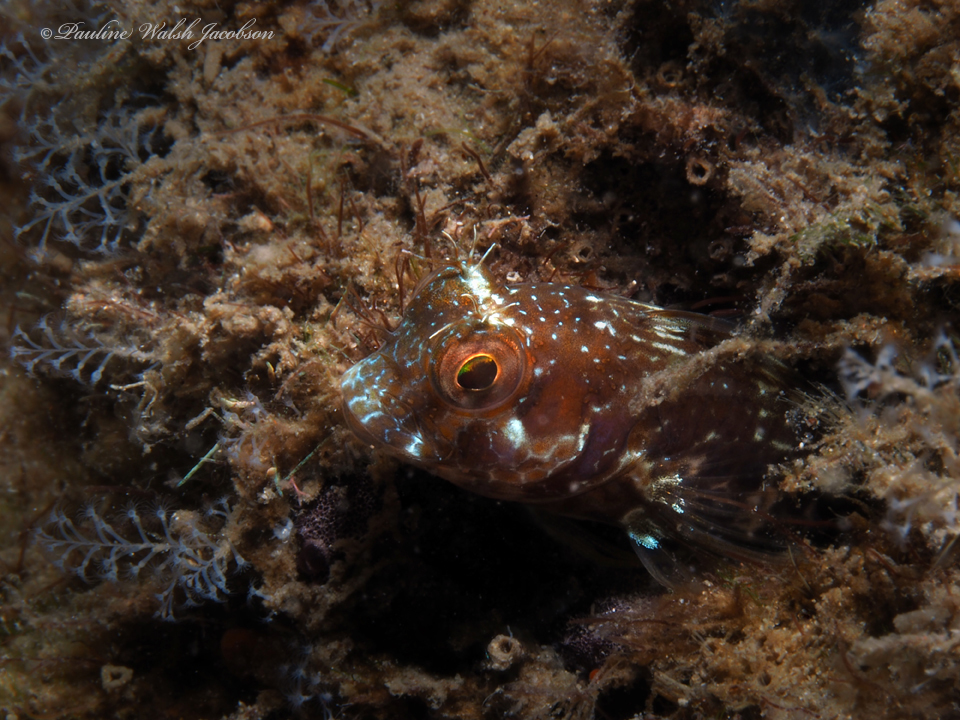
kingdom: Animalia
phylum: Chordata
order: Perciformes
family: Blenniidae
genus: Parablennius
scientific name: Parablennius marmoreus
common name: Seaweed blenny
